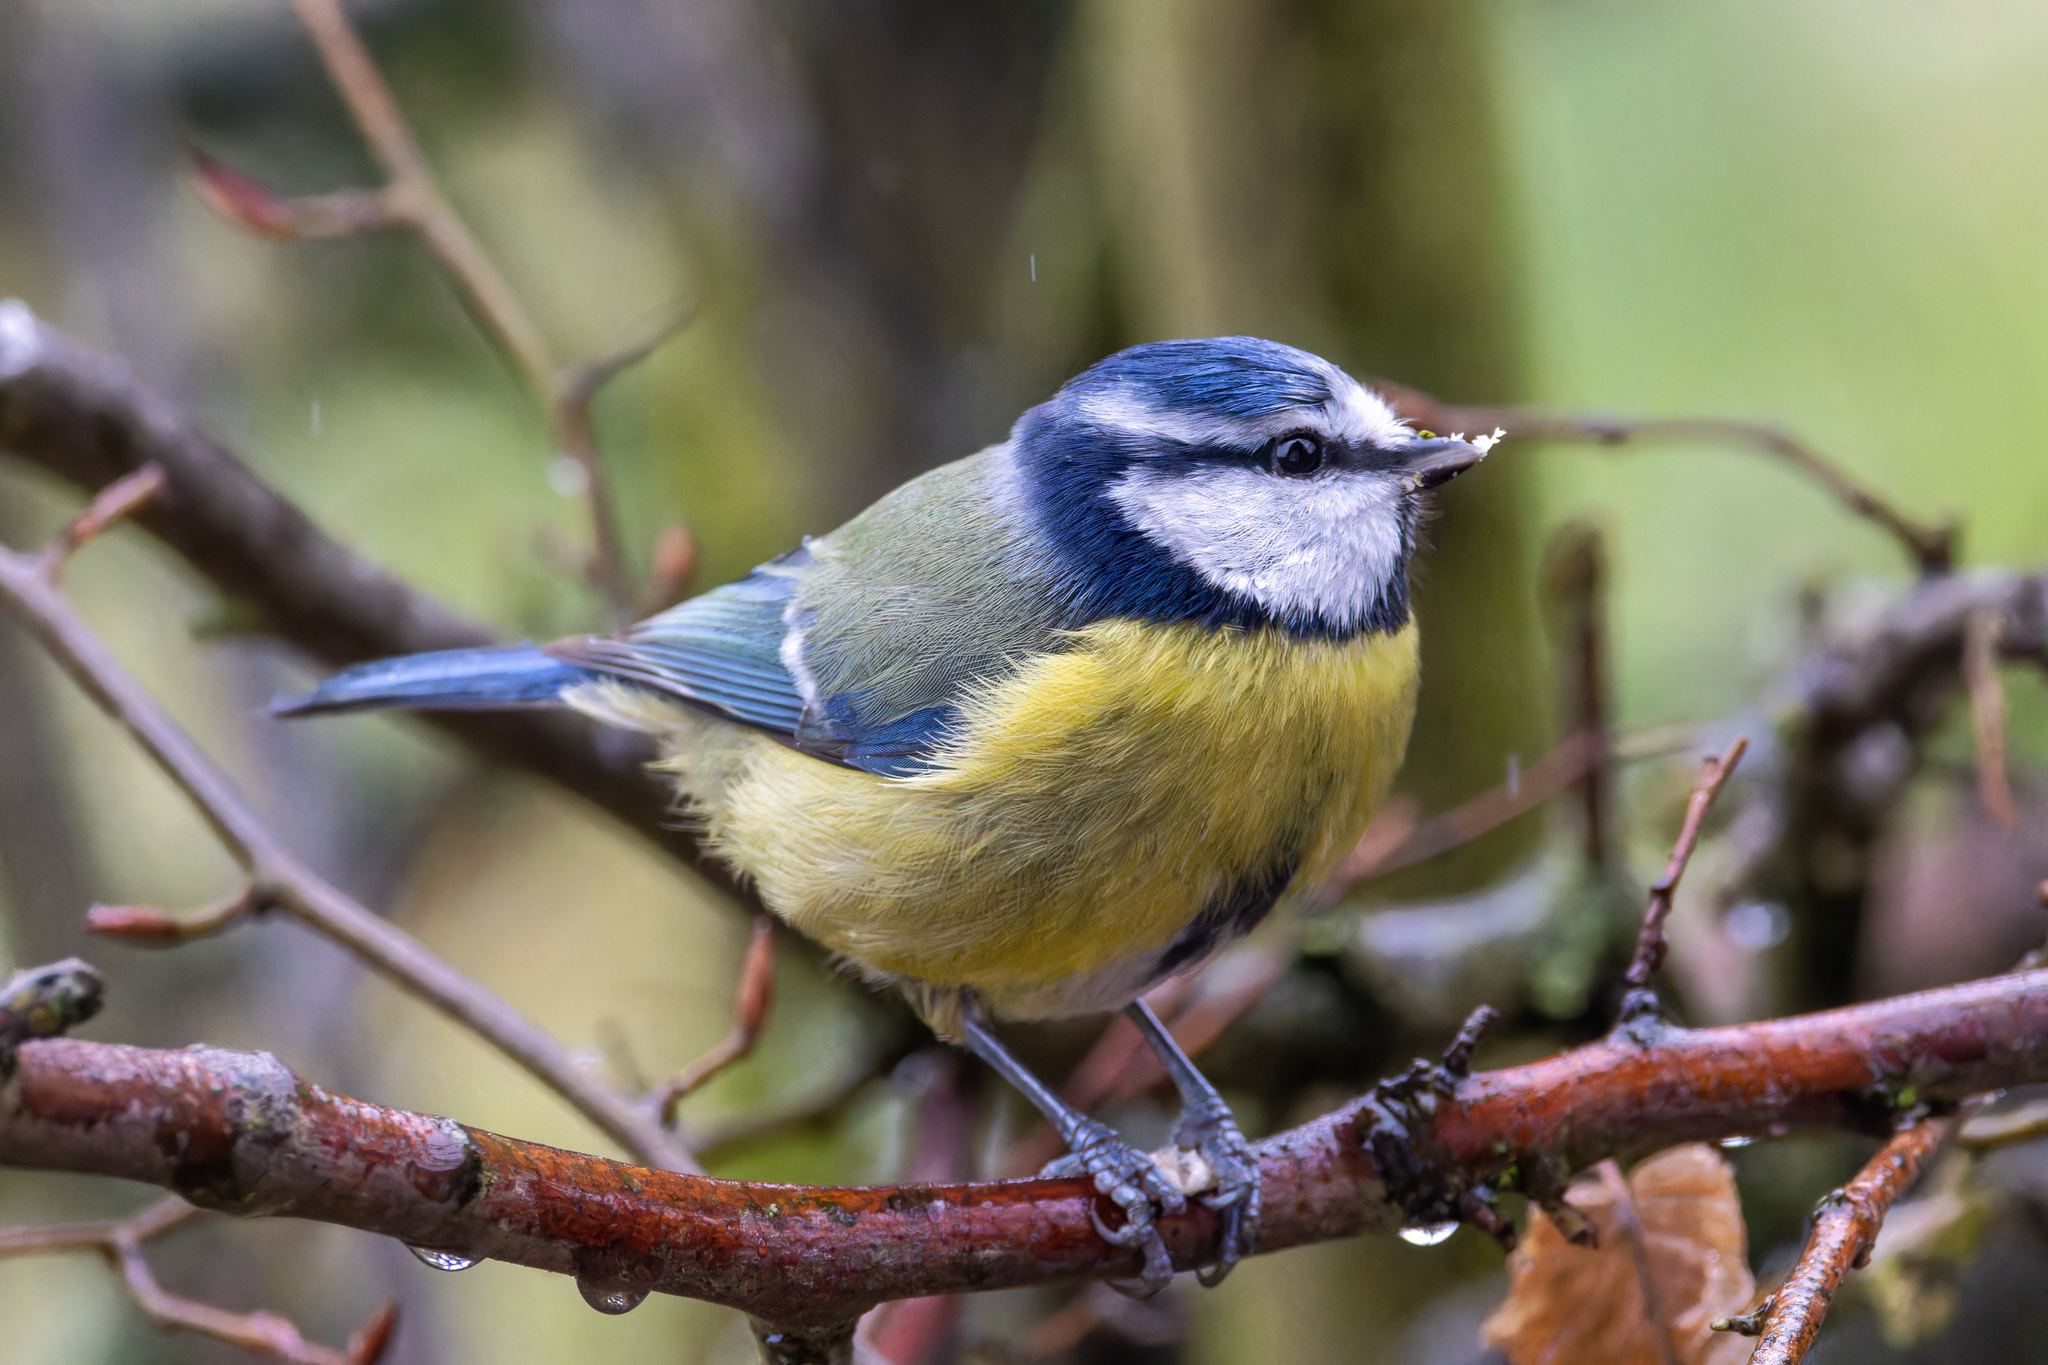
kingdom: Animalia
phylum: Chordata
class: Aves
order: Passeriformes
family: Paridae
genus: Cyanistes
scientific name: Cyanistes caeruleus
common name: Eurasian blue tit
